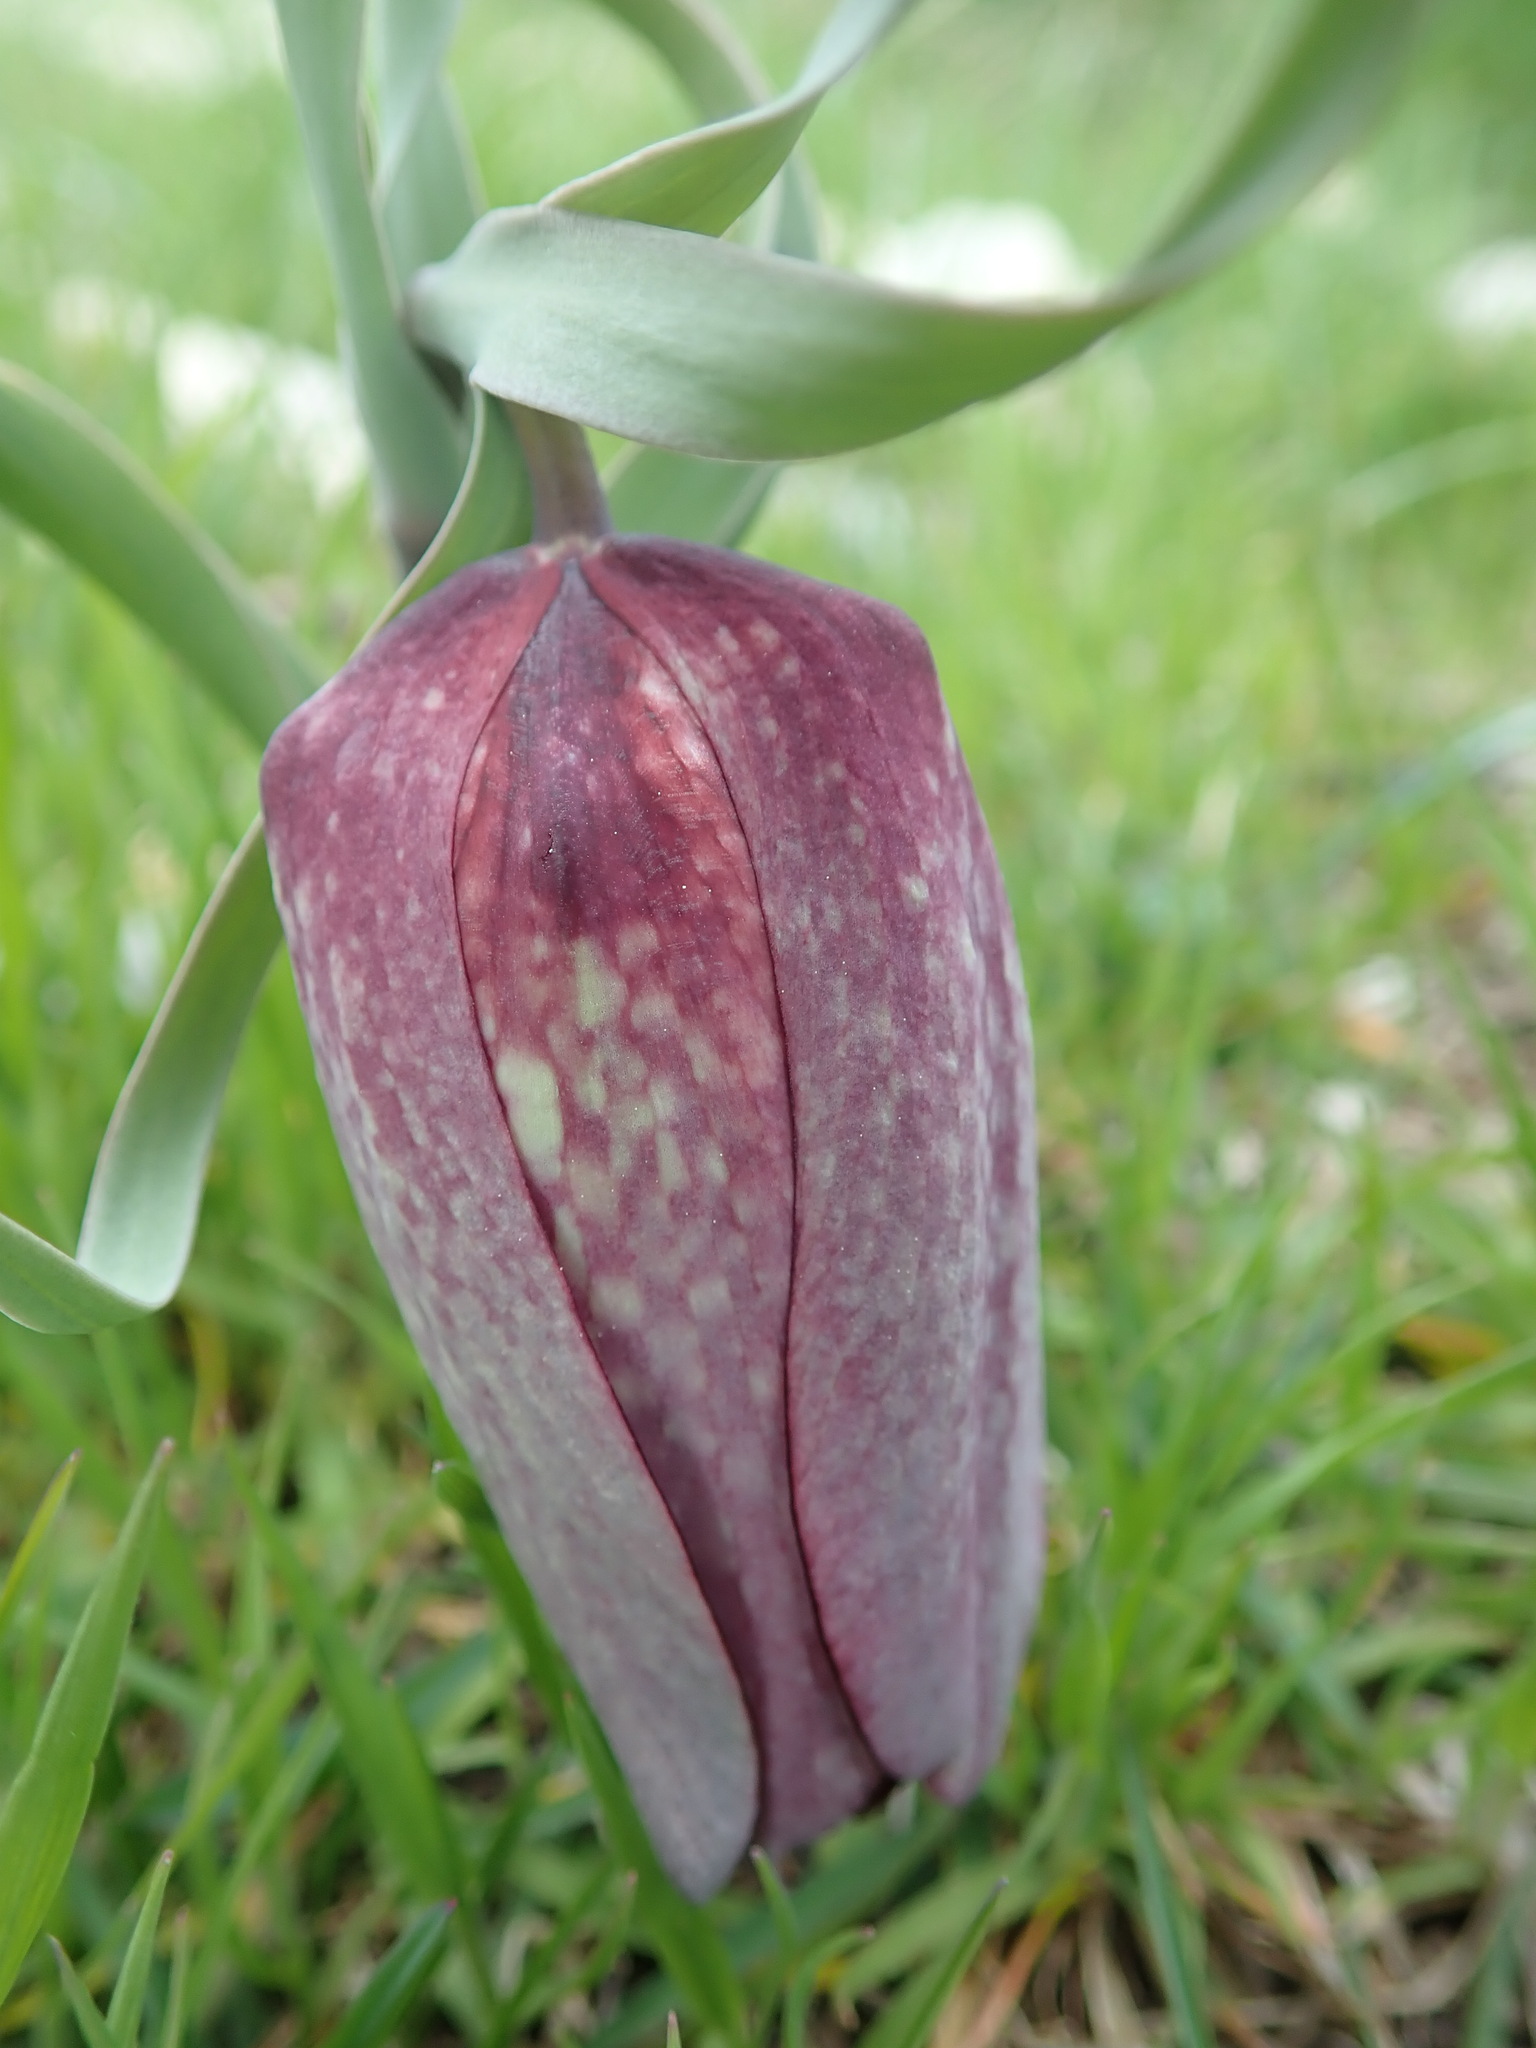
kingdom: Plantae
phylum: Tracheophyta
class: Liliopsida
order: Liliales
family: Liliaceae
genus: Fritillaria
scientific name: Fritillaria tubaeformis
